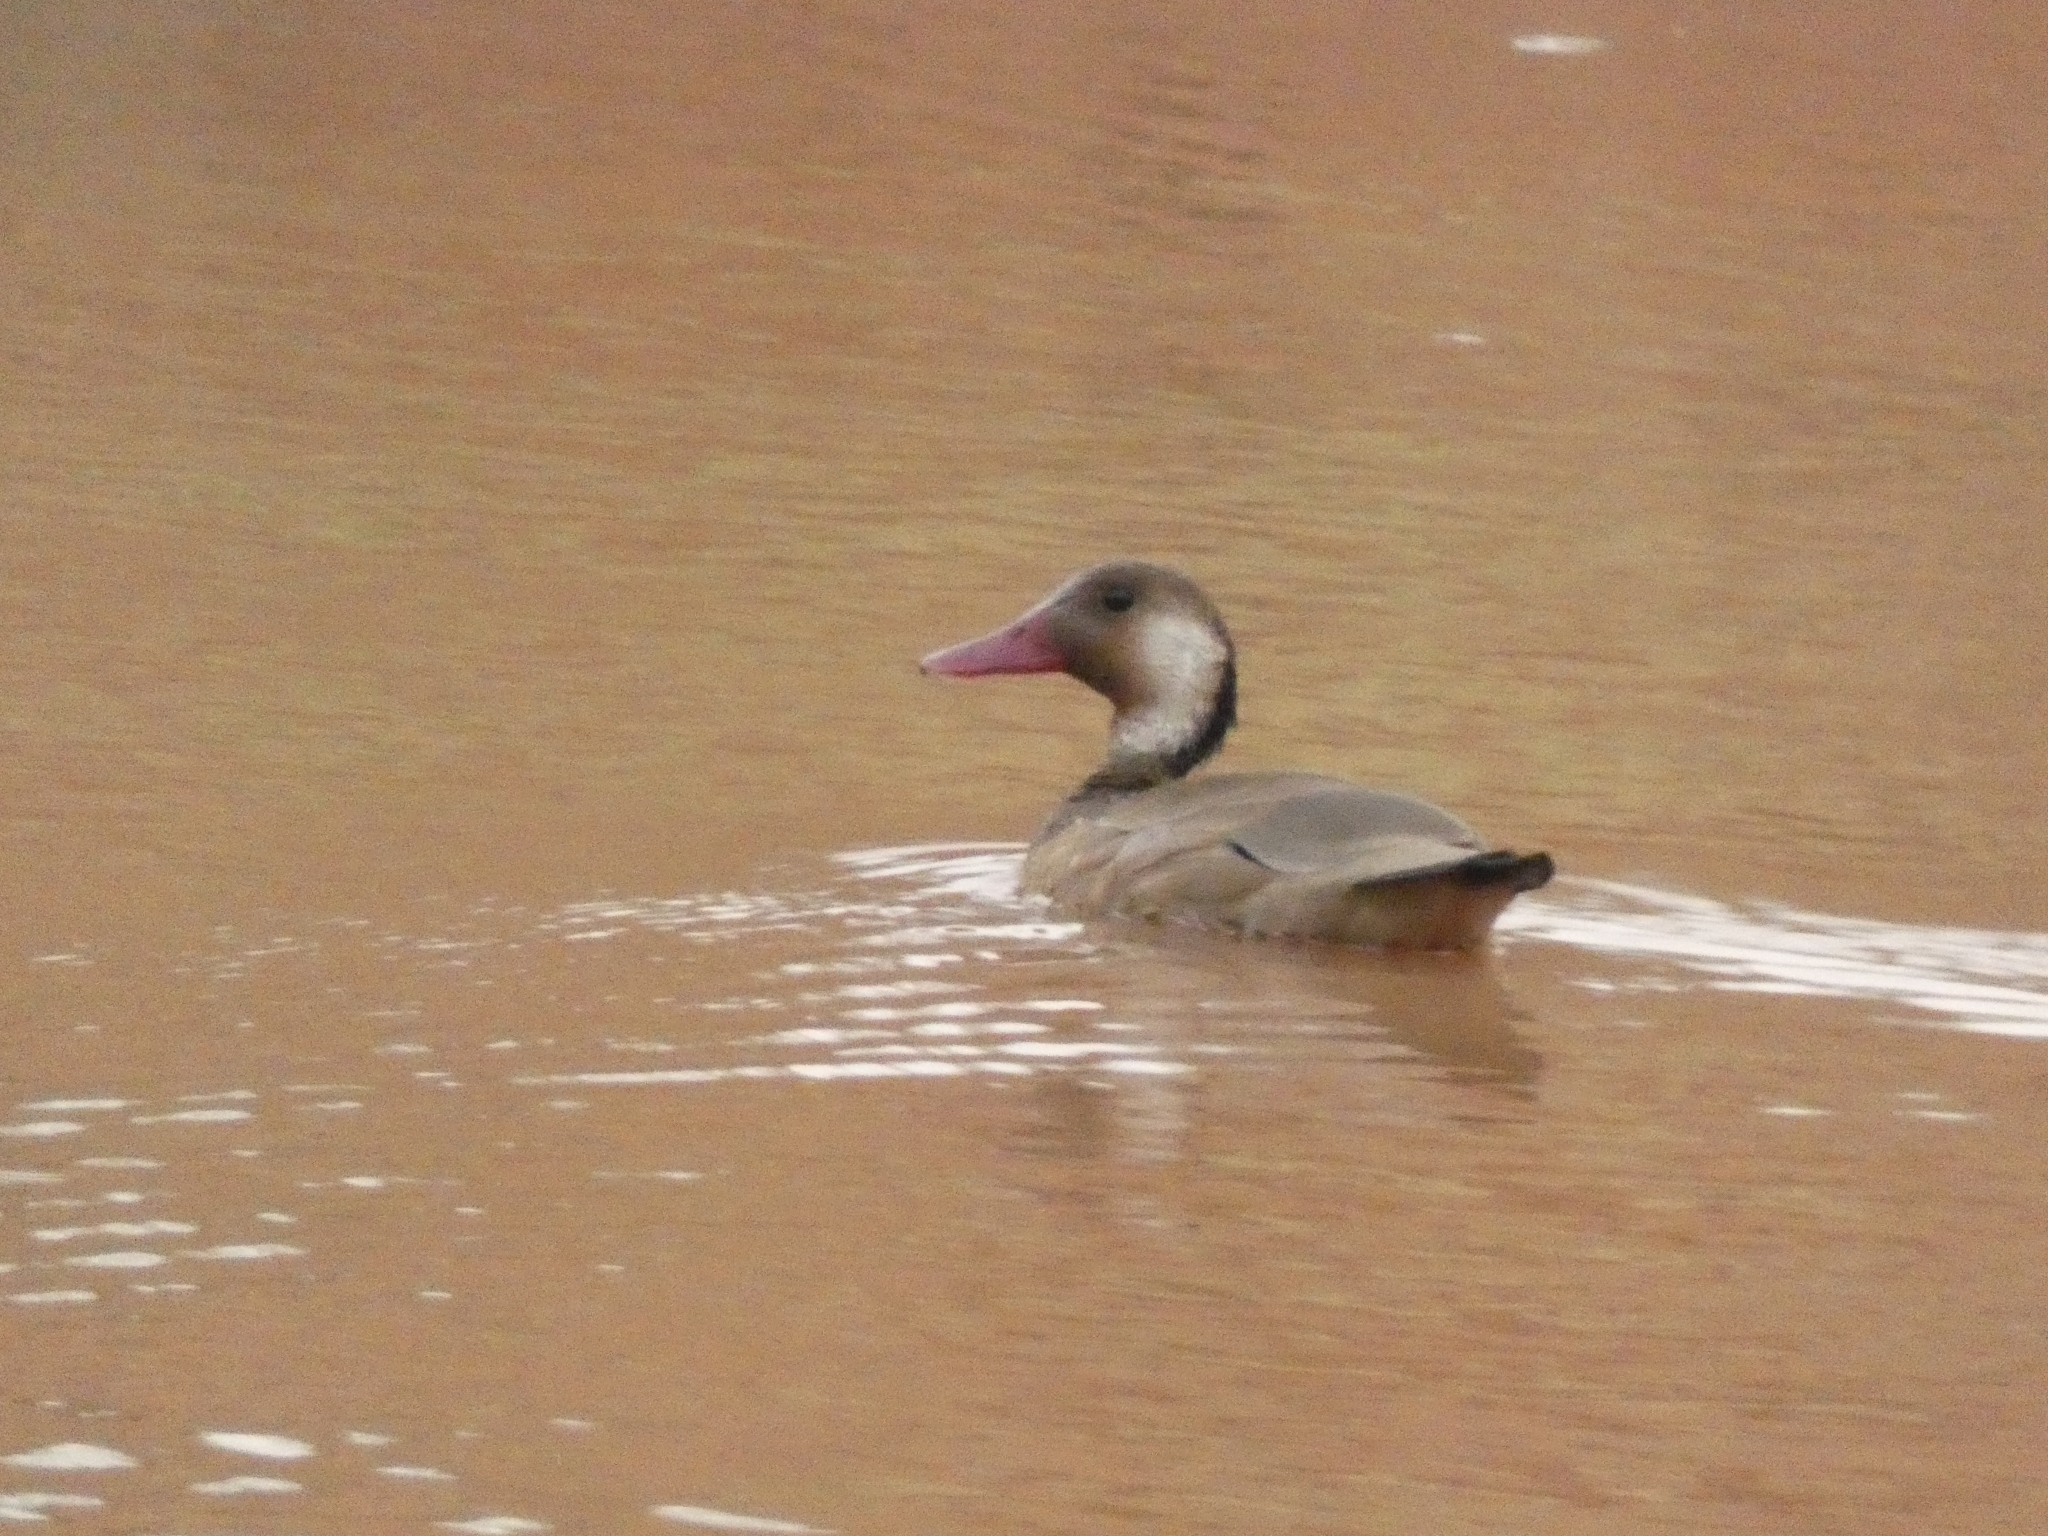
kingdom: Animalia
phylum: Chordata
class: Aves
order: Anseriformes
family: Anatidae
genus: Amazonetta
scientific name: Amazonetta brasiliensis
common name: Brazilian teal
